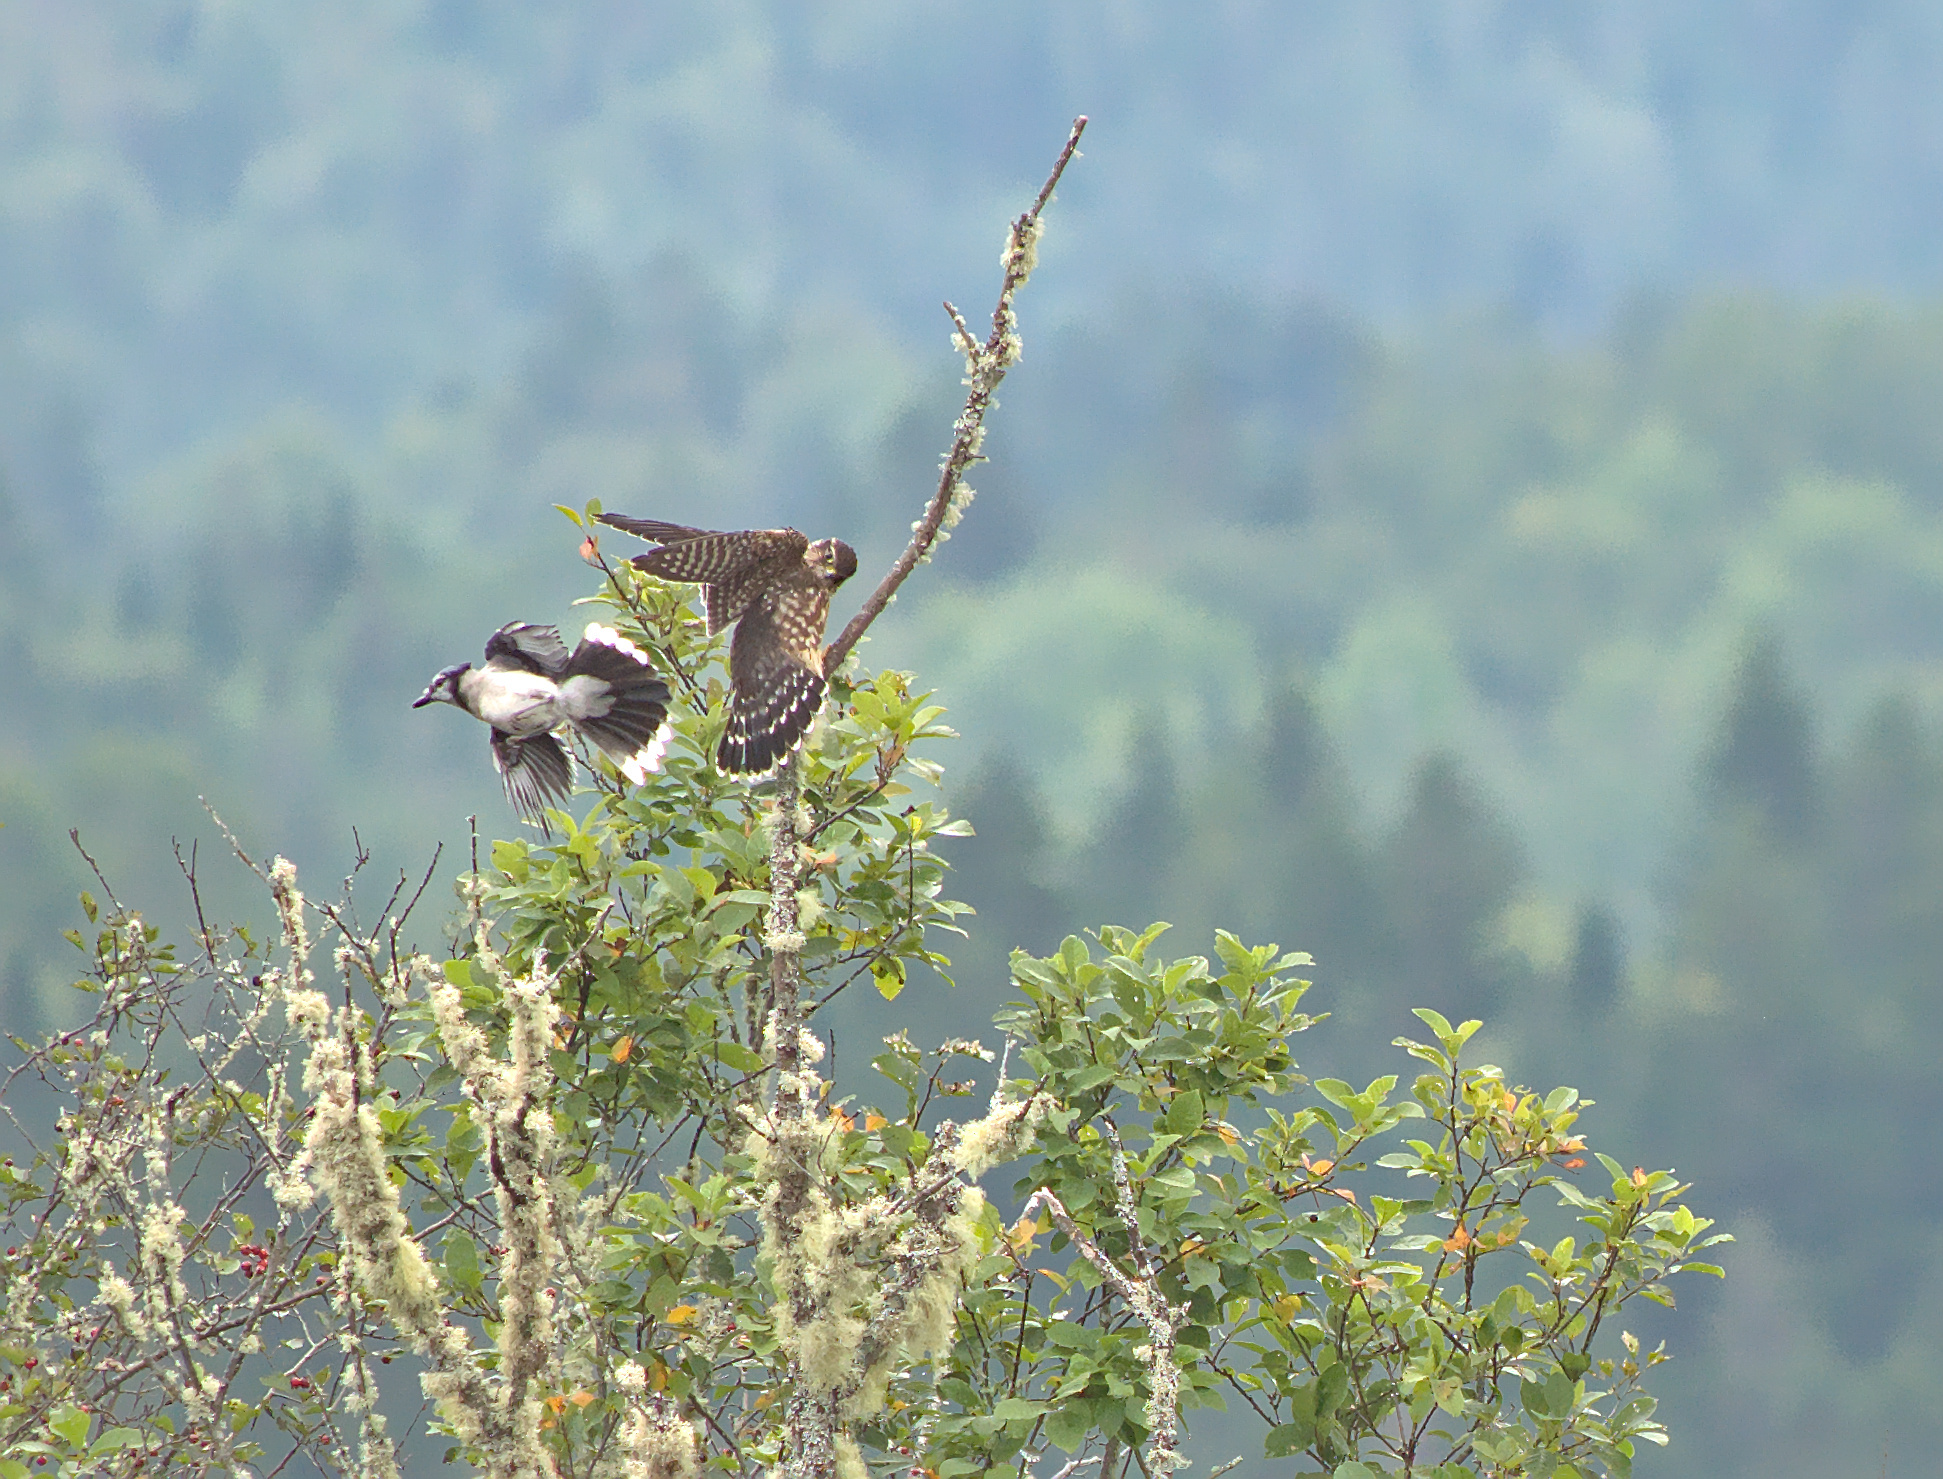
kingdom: Animalia
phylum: Chordata
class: Aves
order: Falconiformes
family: Falconidae
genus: Falco
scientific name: Falco columbarius
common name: Merlin
